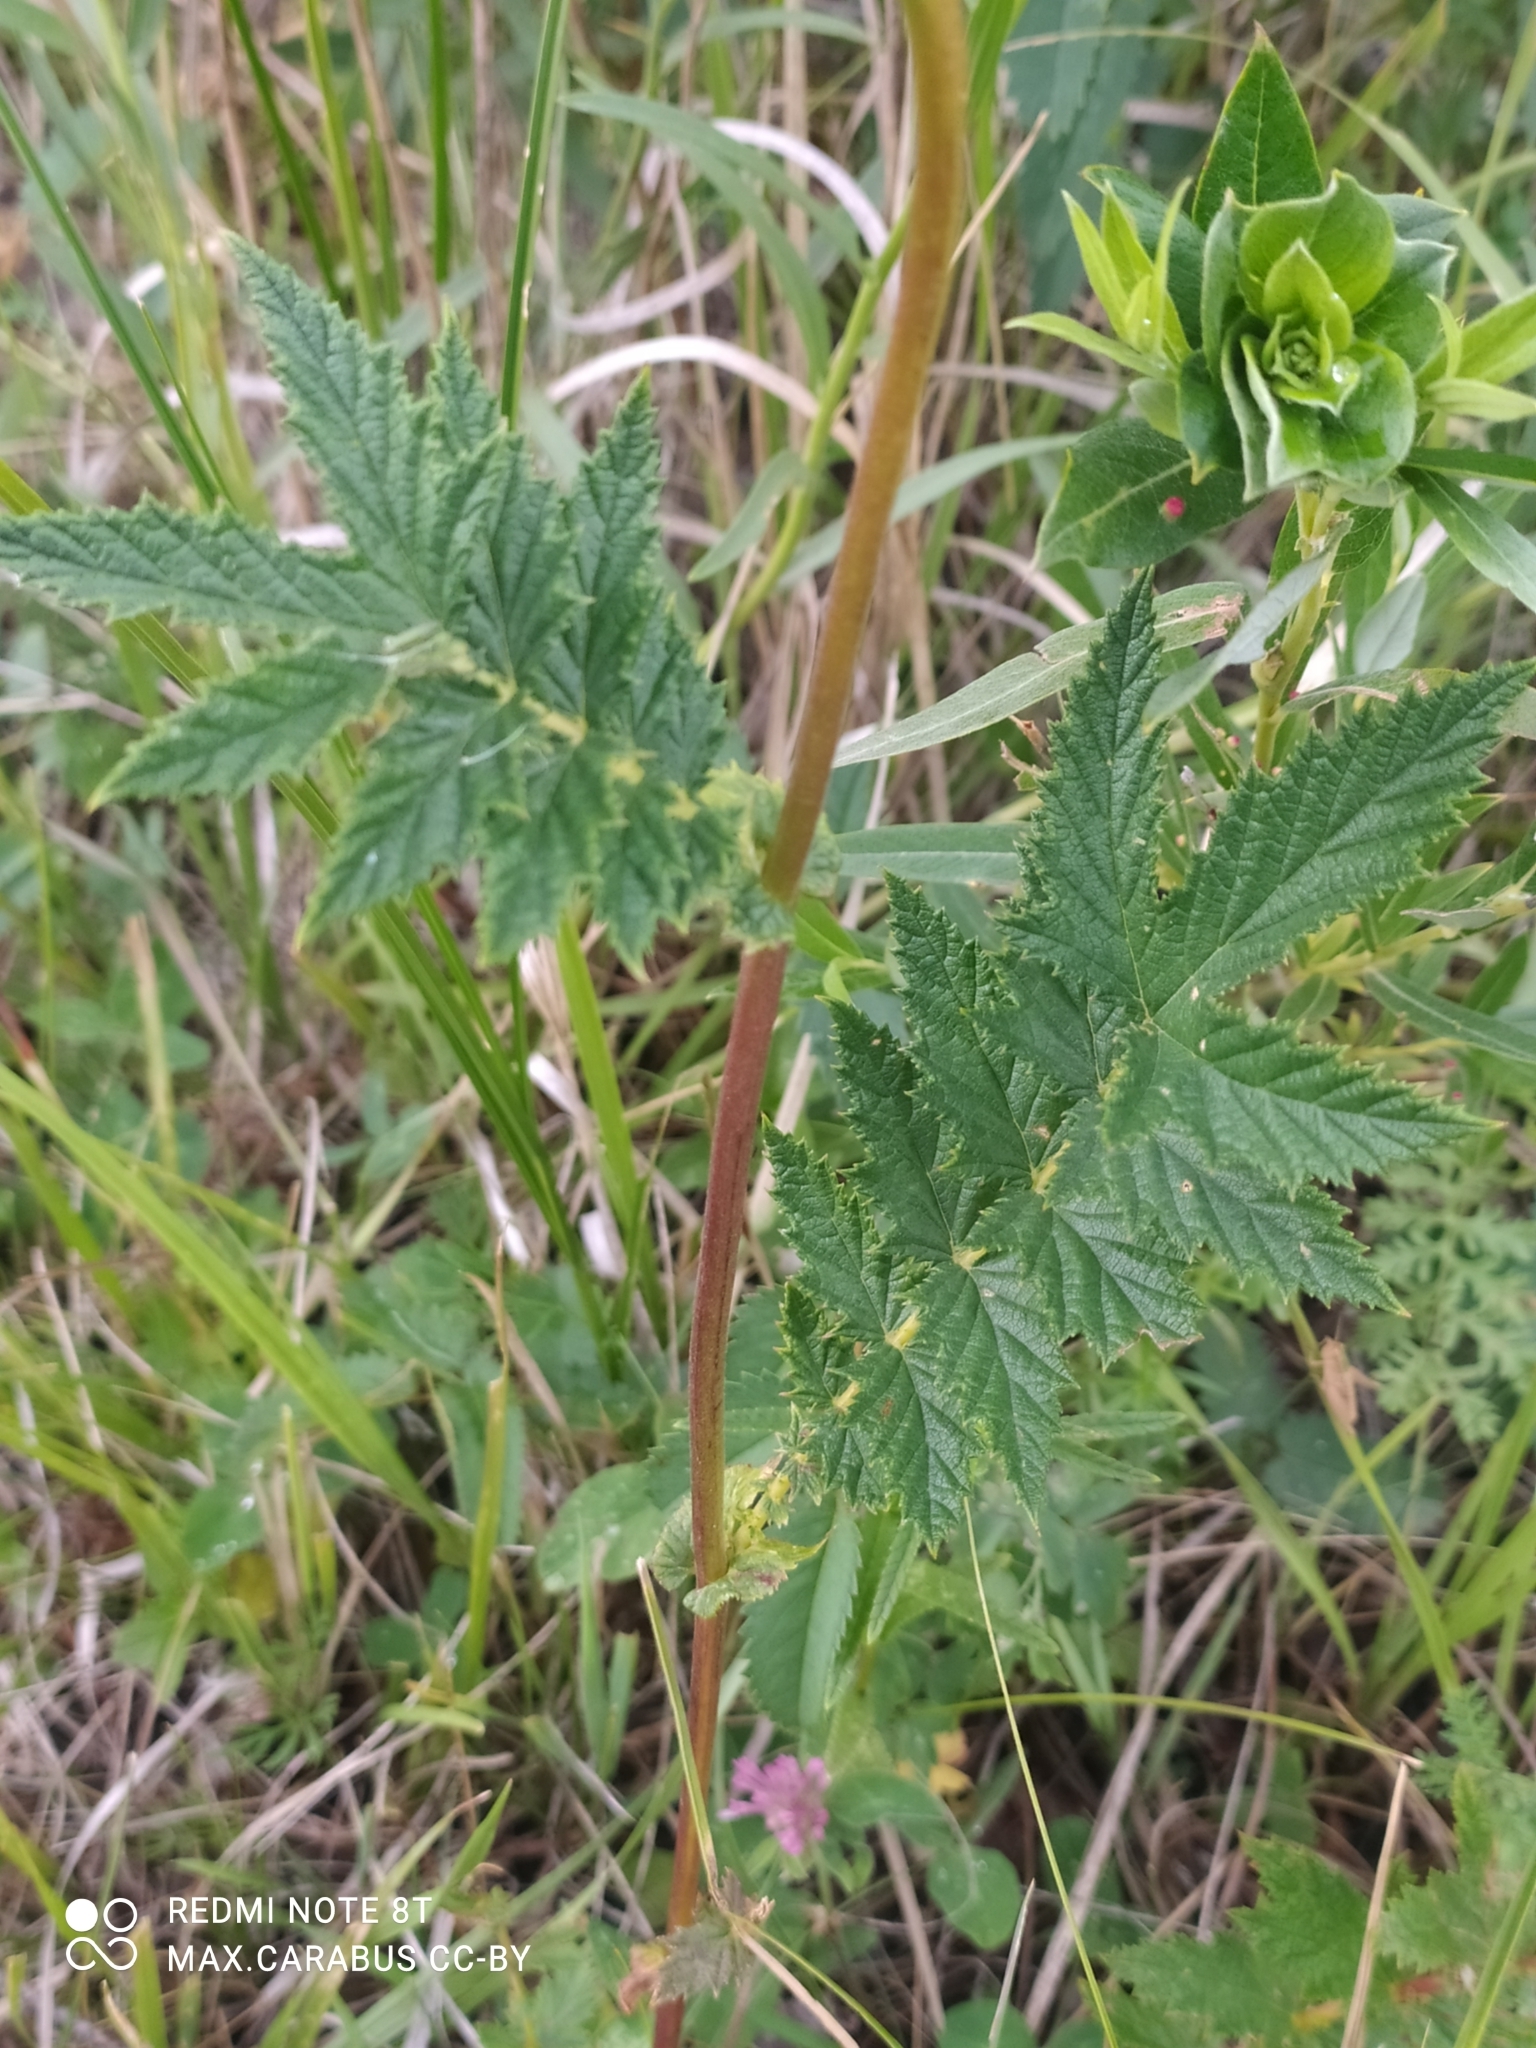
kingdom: Plantae
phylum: Tracheophyta
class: Magnoliopsida
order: Rosales
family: Rosaceae
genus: Filipendula
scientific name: Filipendula ulmaria
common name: Meadowsweet
